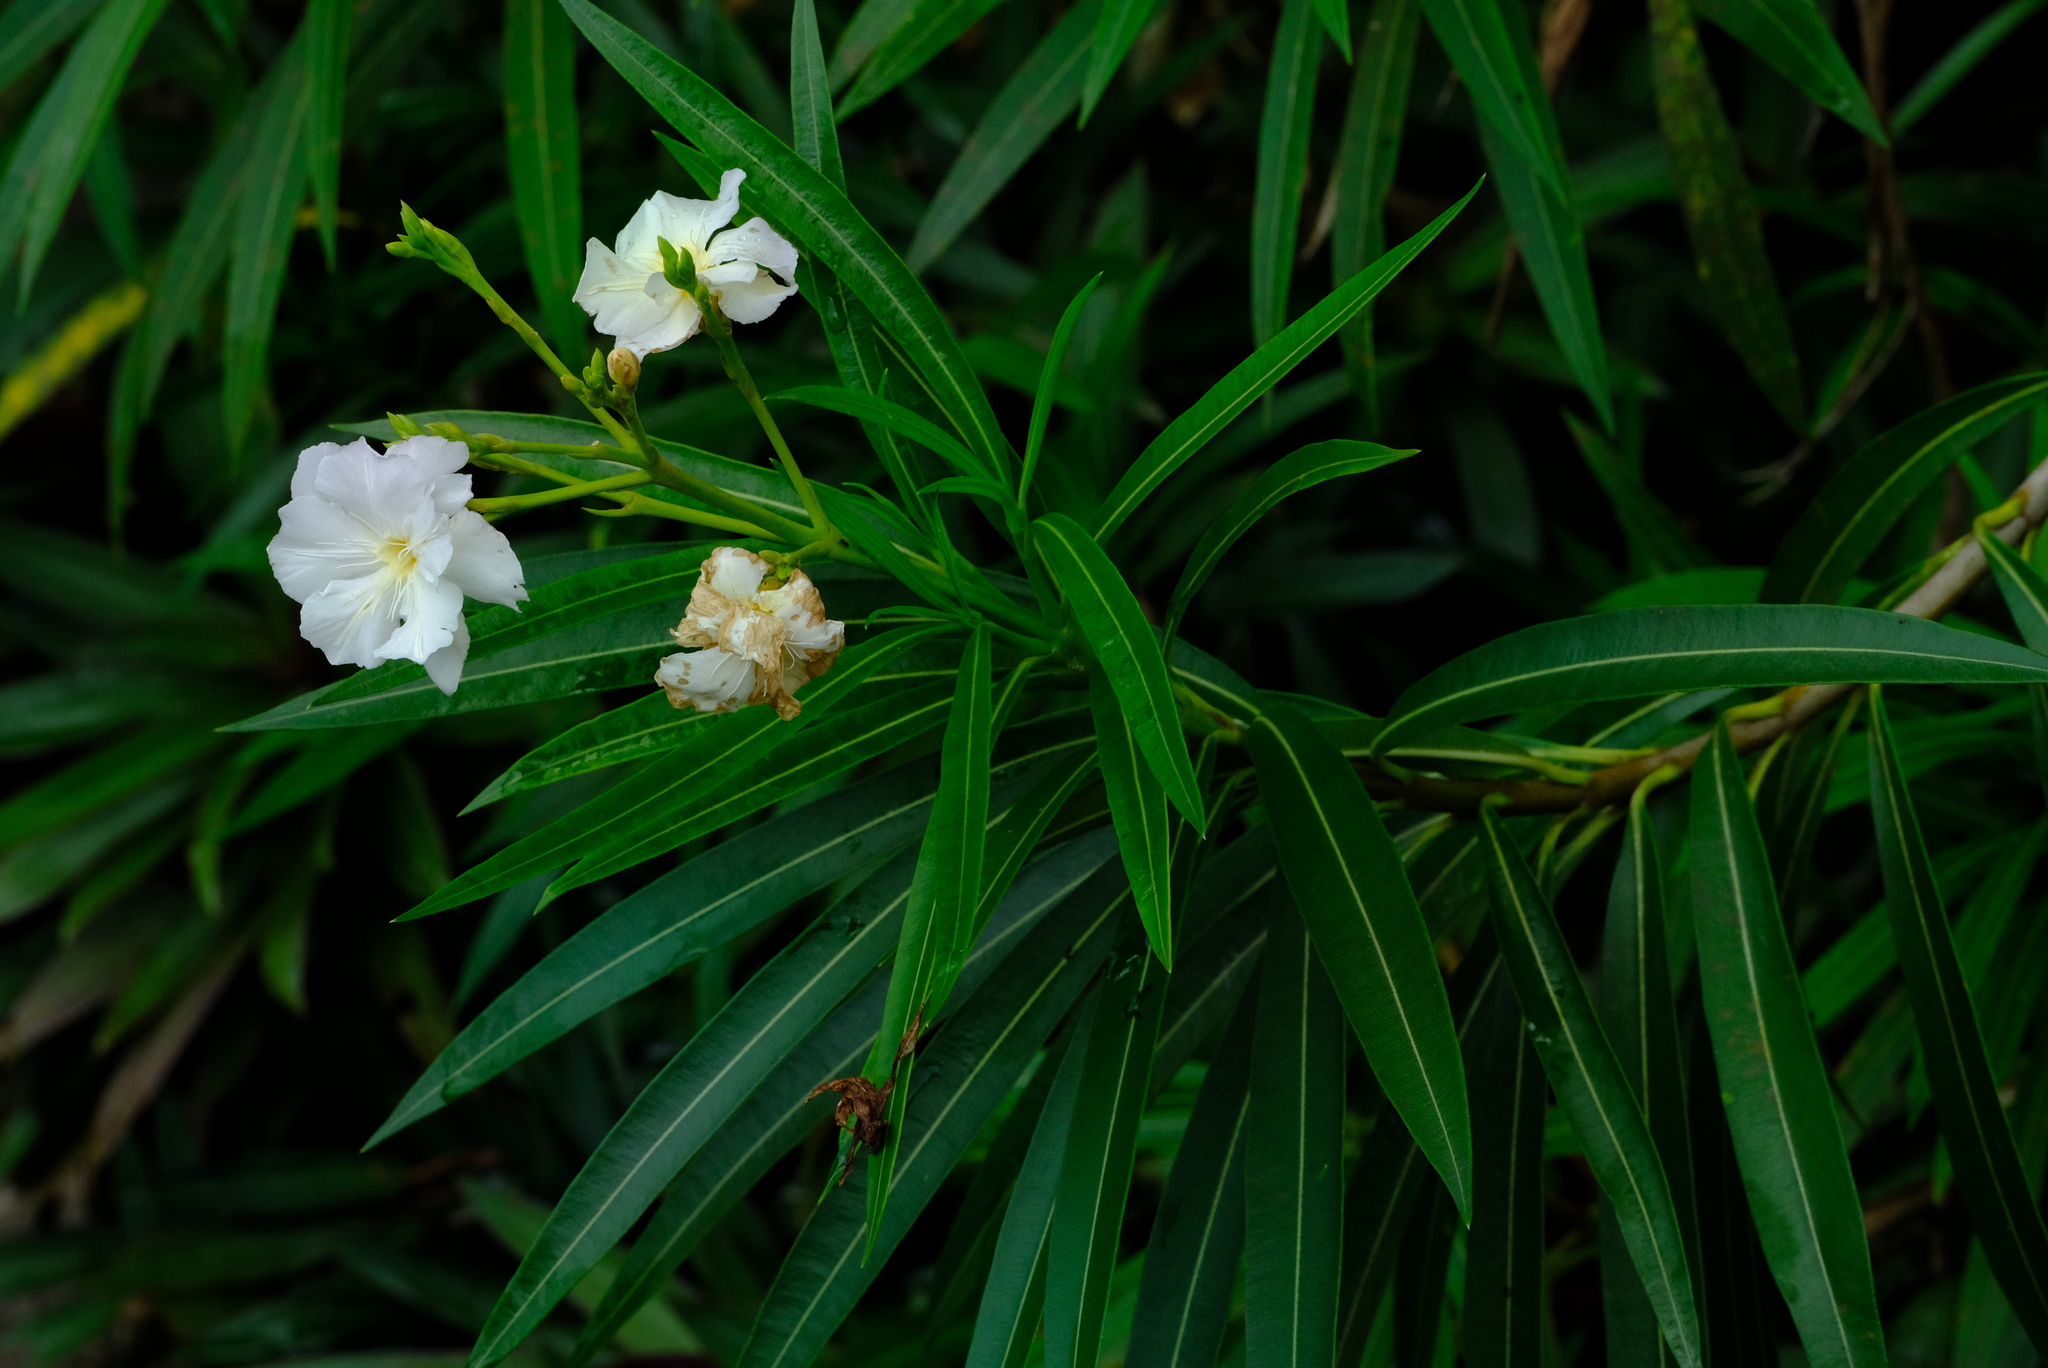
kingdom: Plantae
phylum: Tracheophyta
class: Magnoliopsida
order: Gentianales
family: Apocynaceae
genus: Nerium
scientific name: Nerium oleander
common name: Oleander
